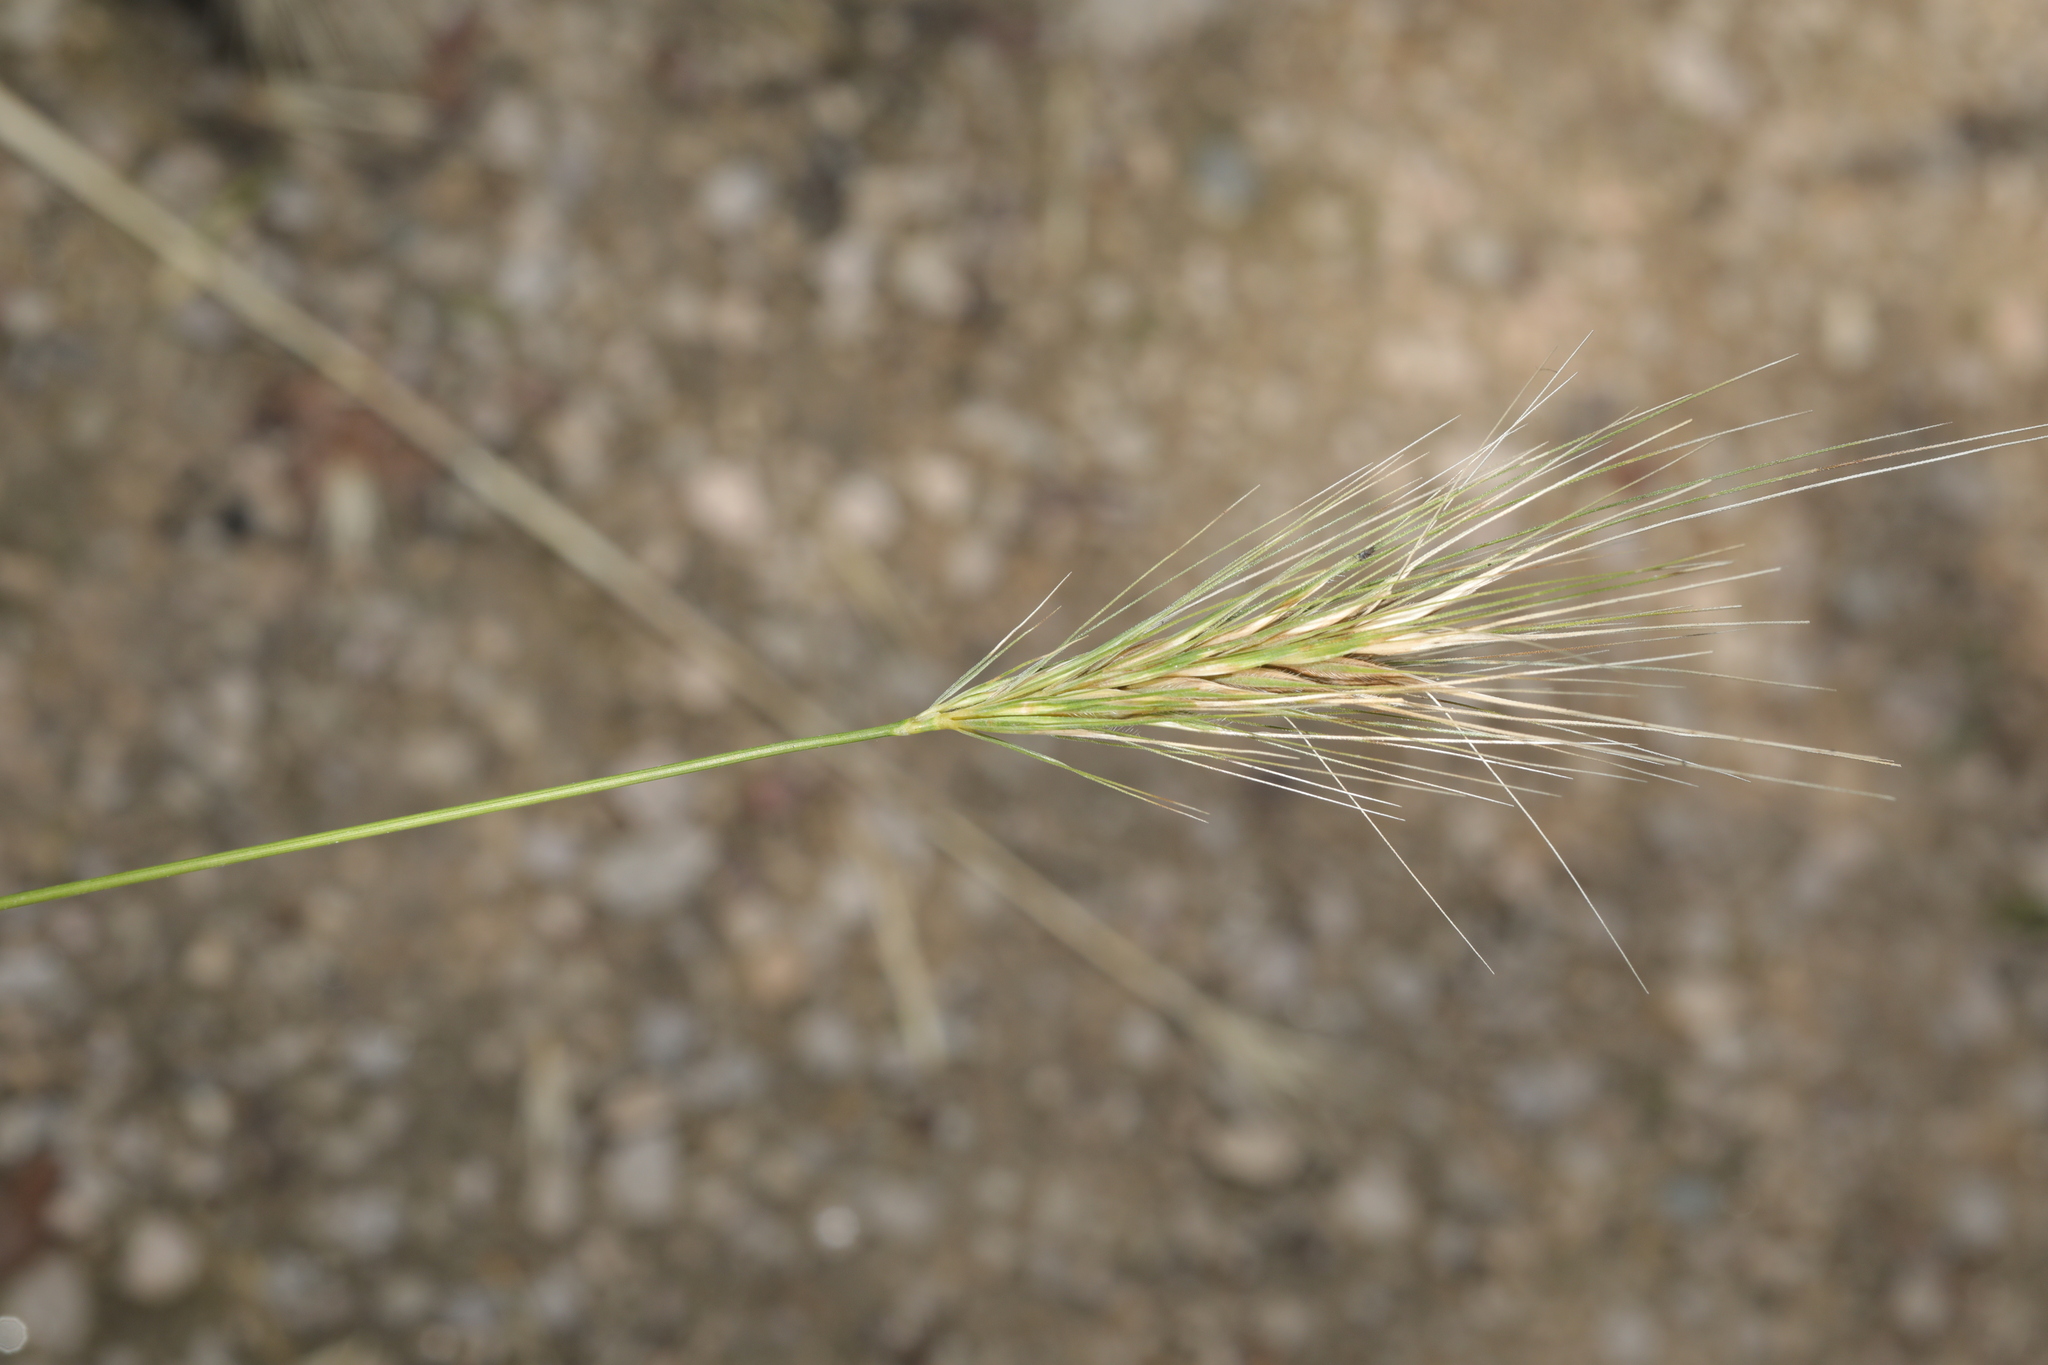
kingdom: Plantae
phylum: Tracheophyta
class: Liliopsida
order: Poales
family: Poaceae
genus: Hordeum
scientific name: Hordeum murinum
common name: Wall barley
